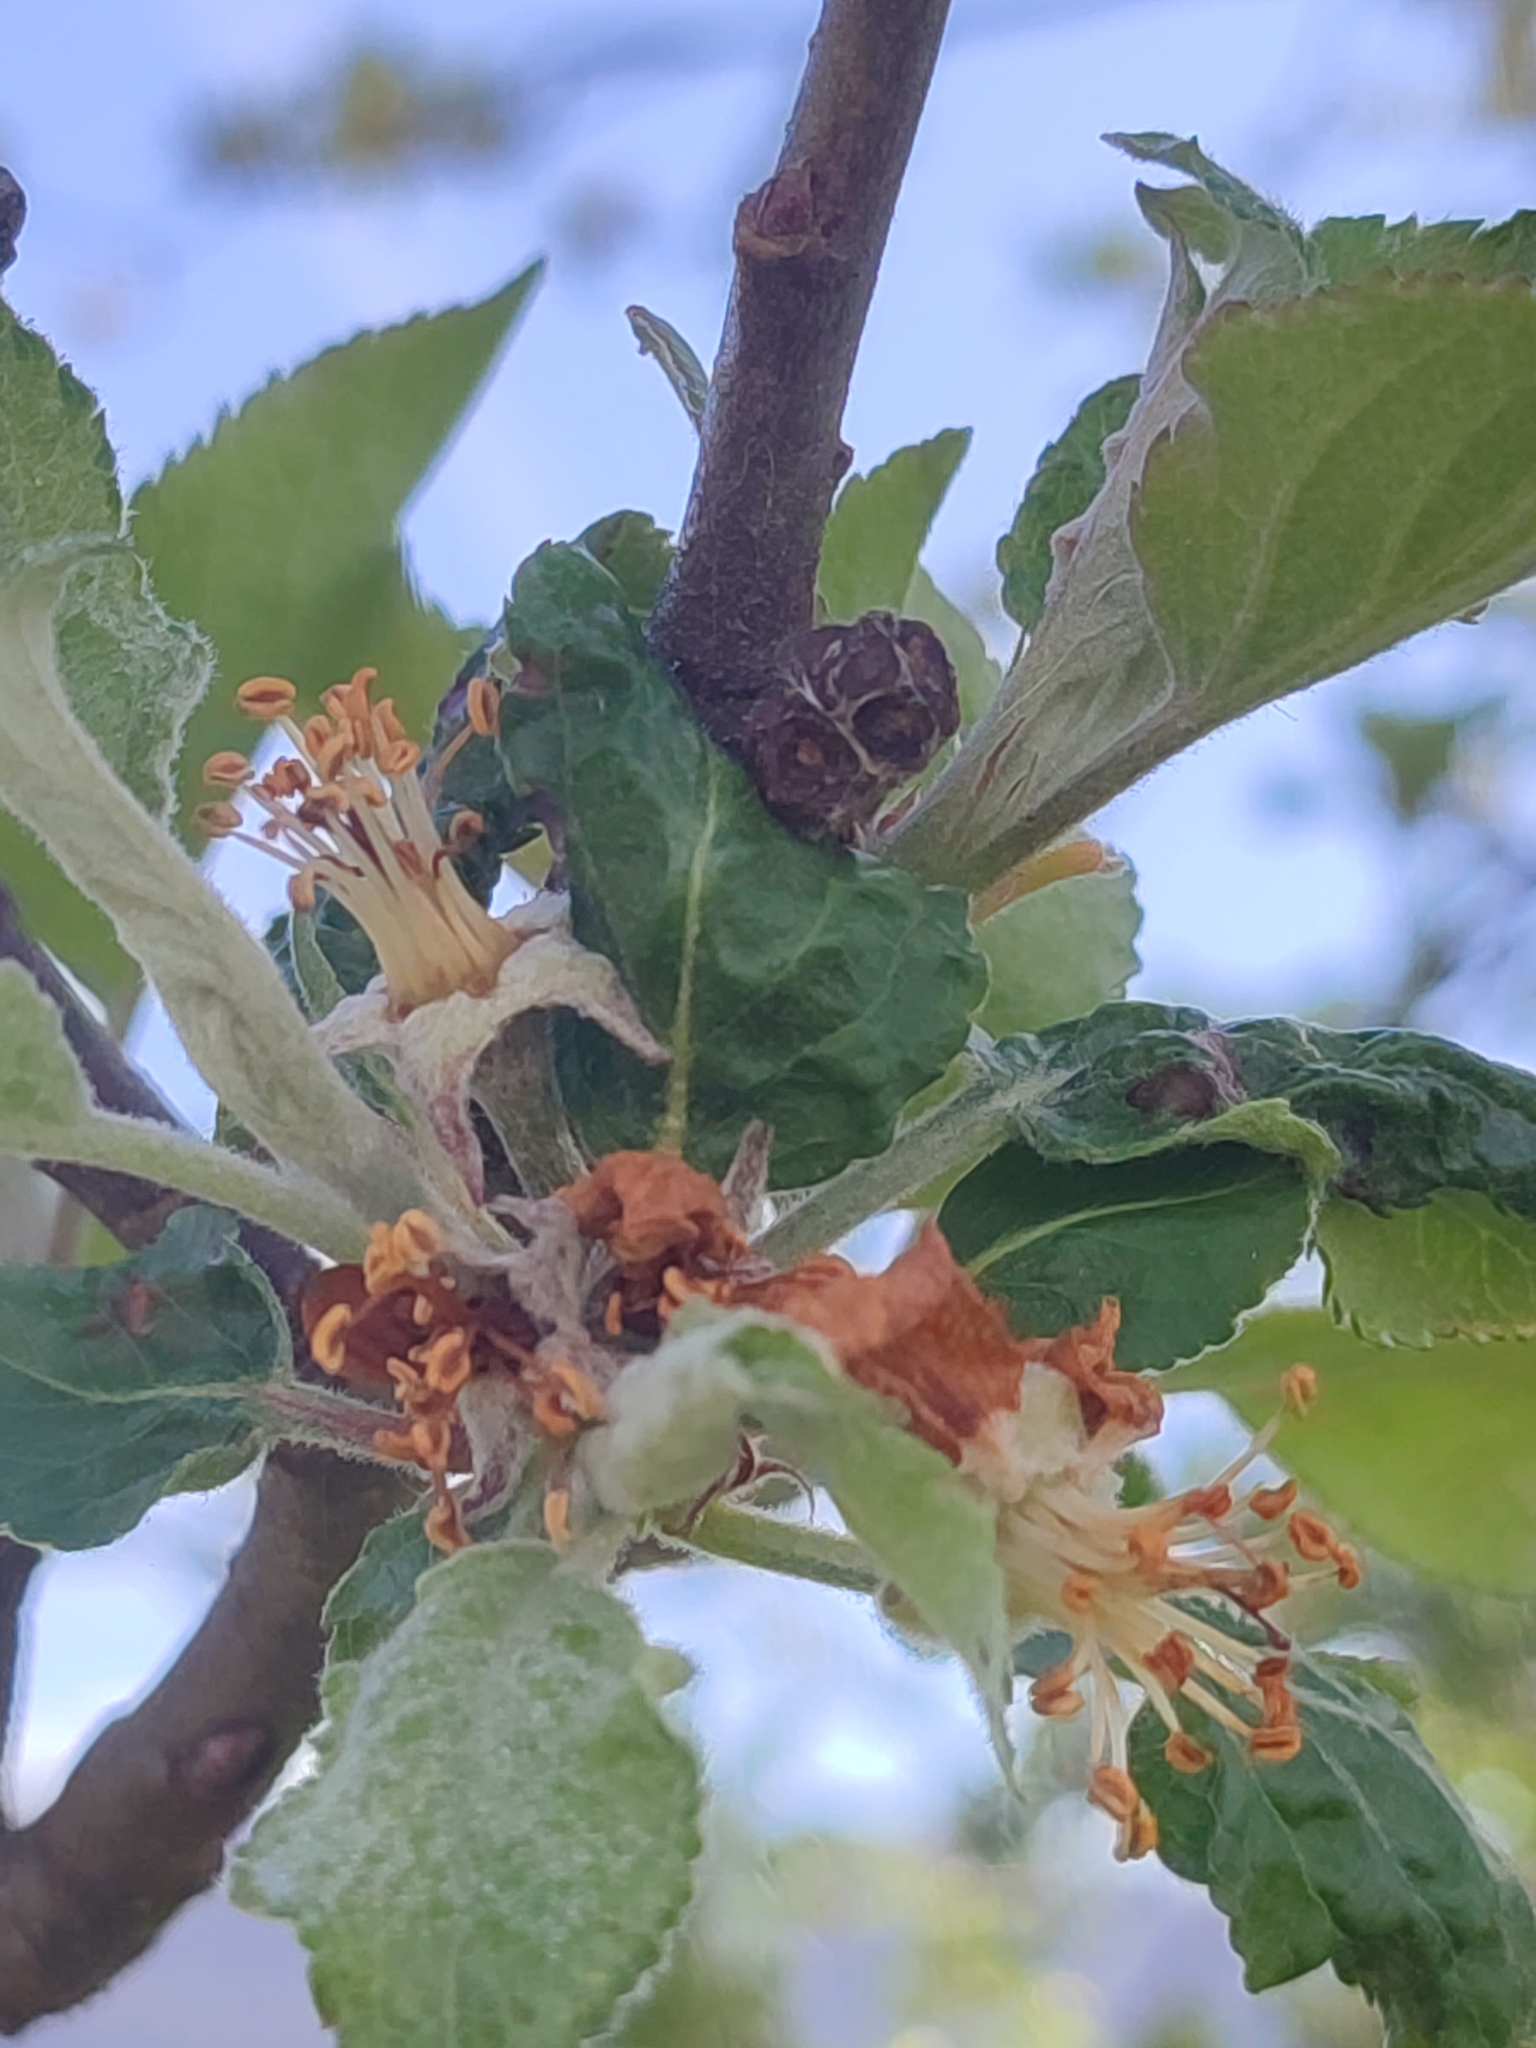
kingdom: Plantae
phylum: Tracheophyta
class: Magnoliopsida
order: Rosales
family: Rosaceae
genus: Malus
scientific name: Malus domestica
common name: Apple
